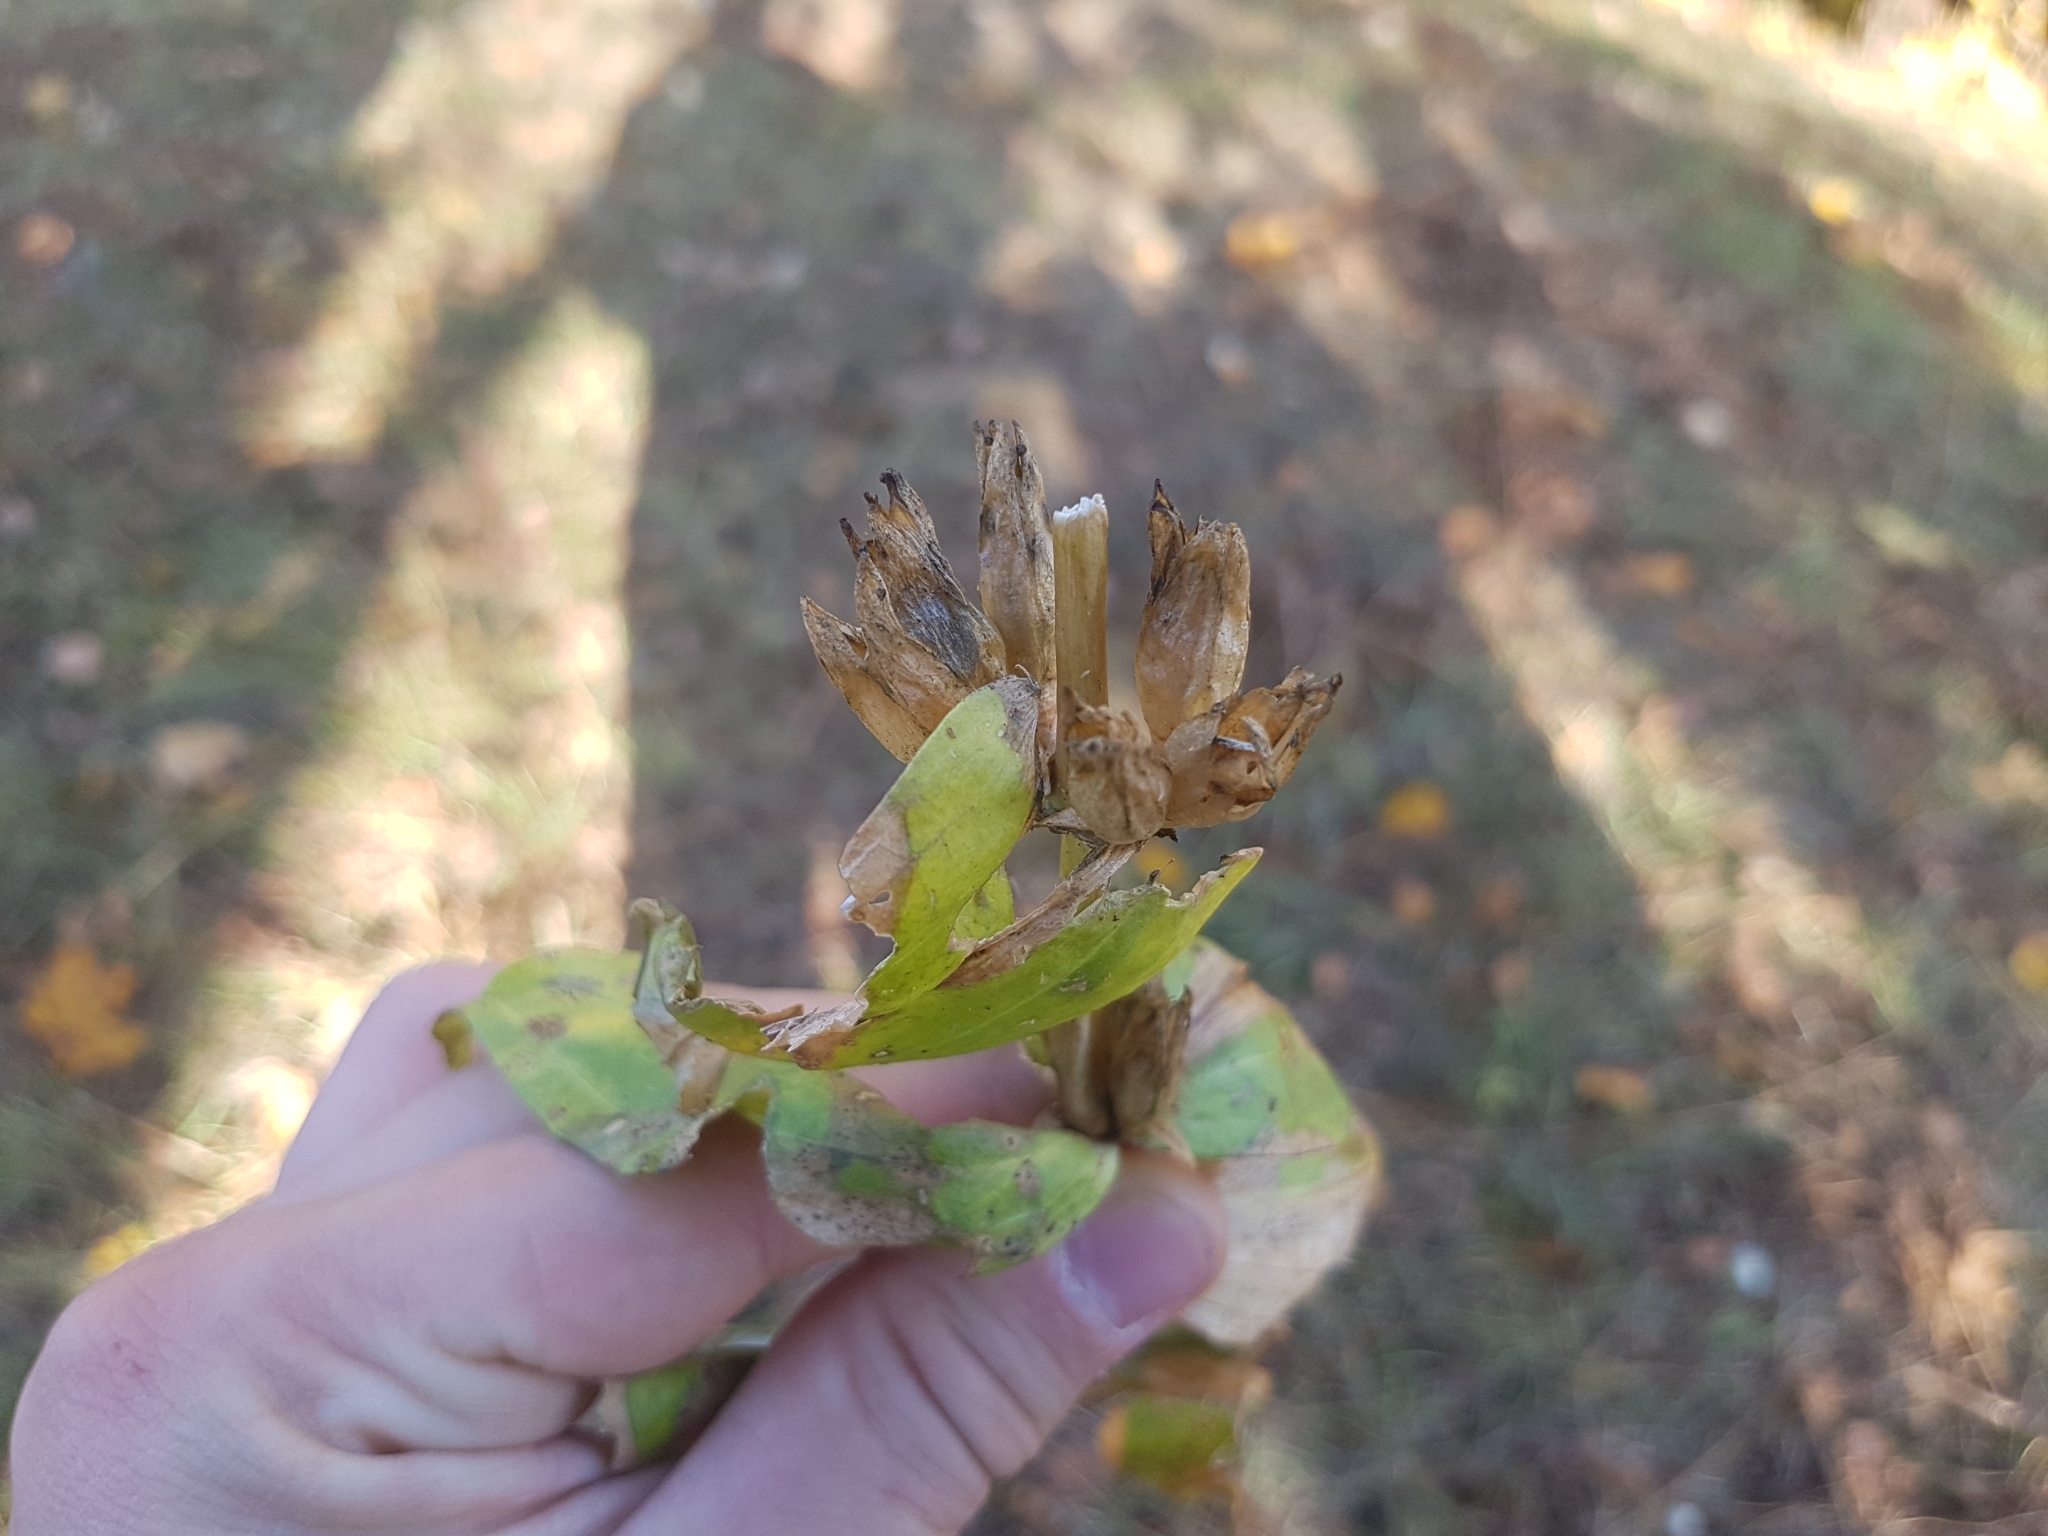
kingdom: Plantae
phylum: Tracheophyta
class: Magnoliopsida
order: Gentianales
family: Gentianaceae
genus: Gentiana
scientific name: Gentiana cruciata
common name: Cross gentian
